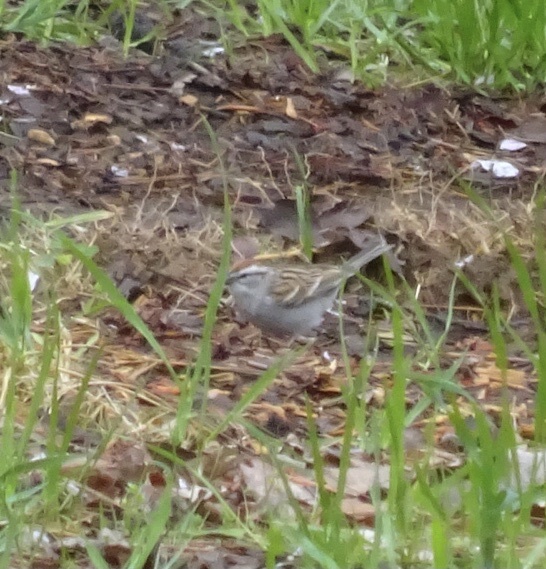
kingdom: Animalia
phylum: Chordata
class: Aves
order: Passeriformes
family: Passerellidae
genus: Spizella
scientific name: Spizella passerina
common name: Chipping sparrow
